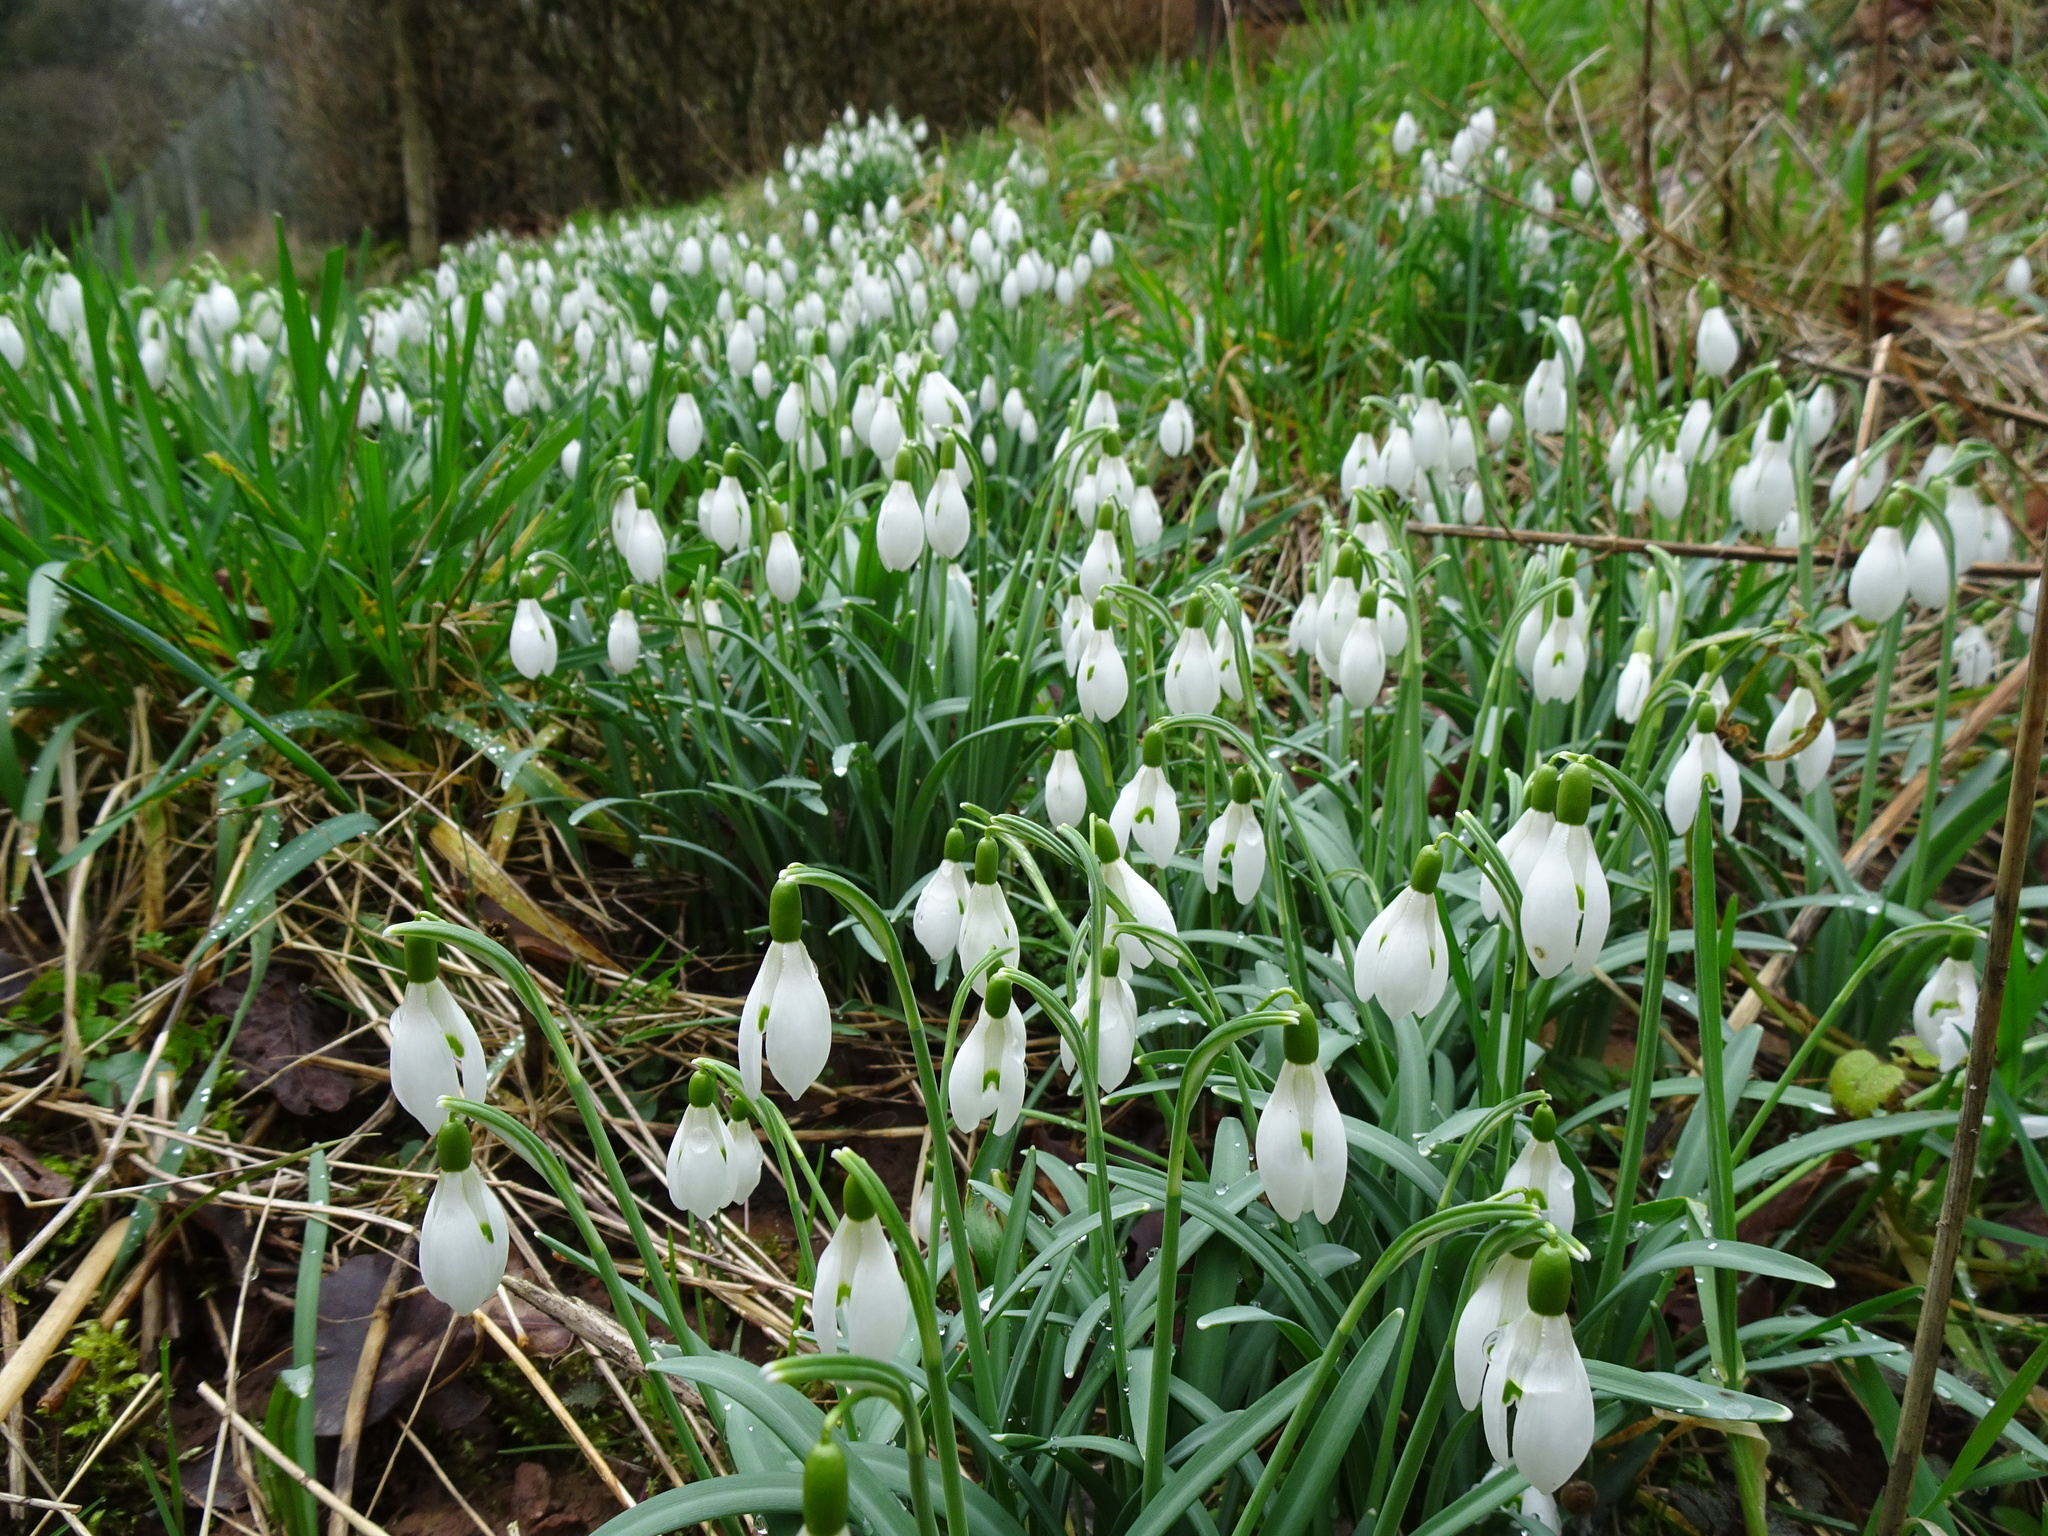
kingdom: Plantae
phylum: Tracheophyta
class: Liliopsida
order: Asparagales
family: Amaryllidaceae
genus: Galanthus
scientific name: Galanthus nivalis
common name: Snowdrop
